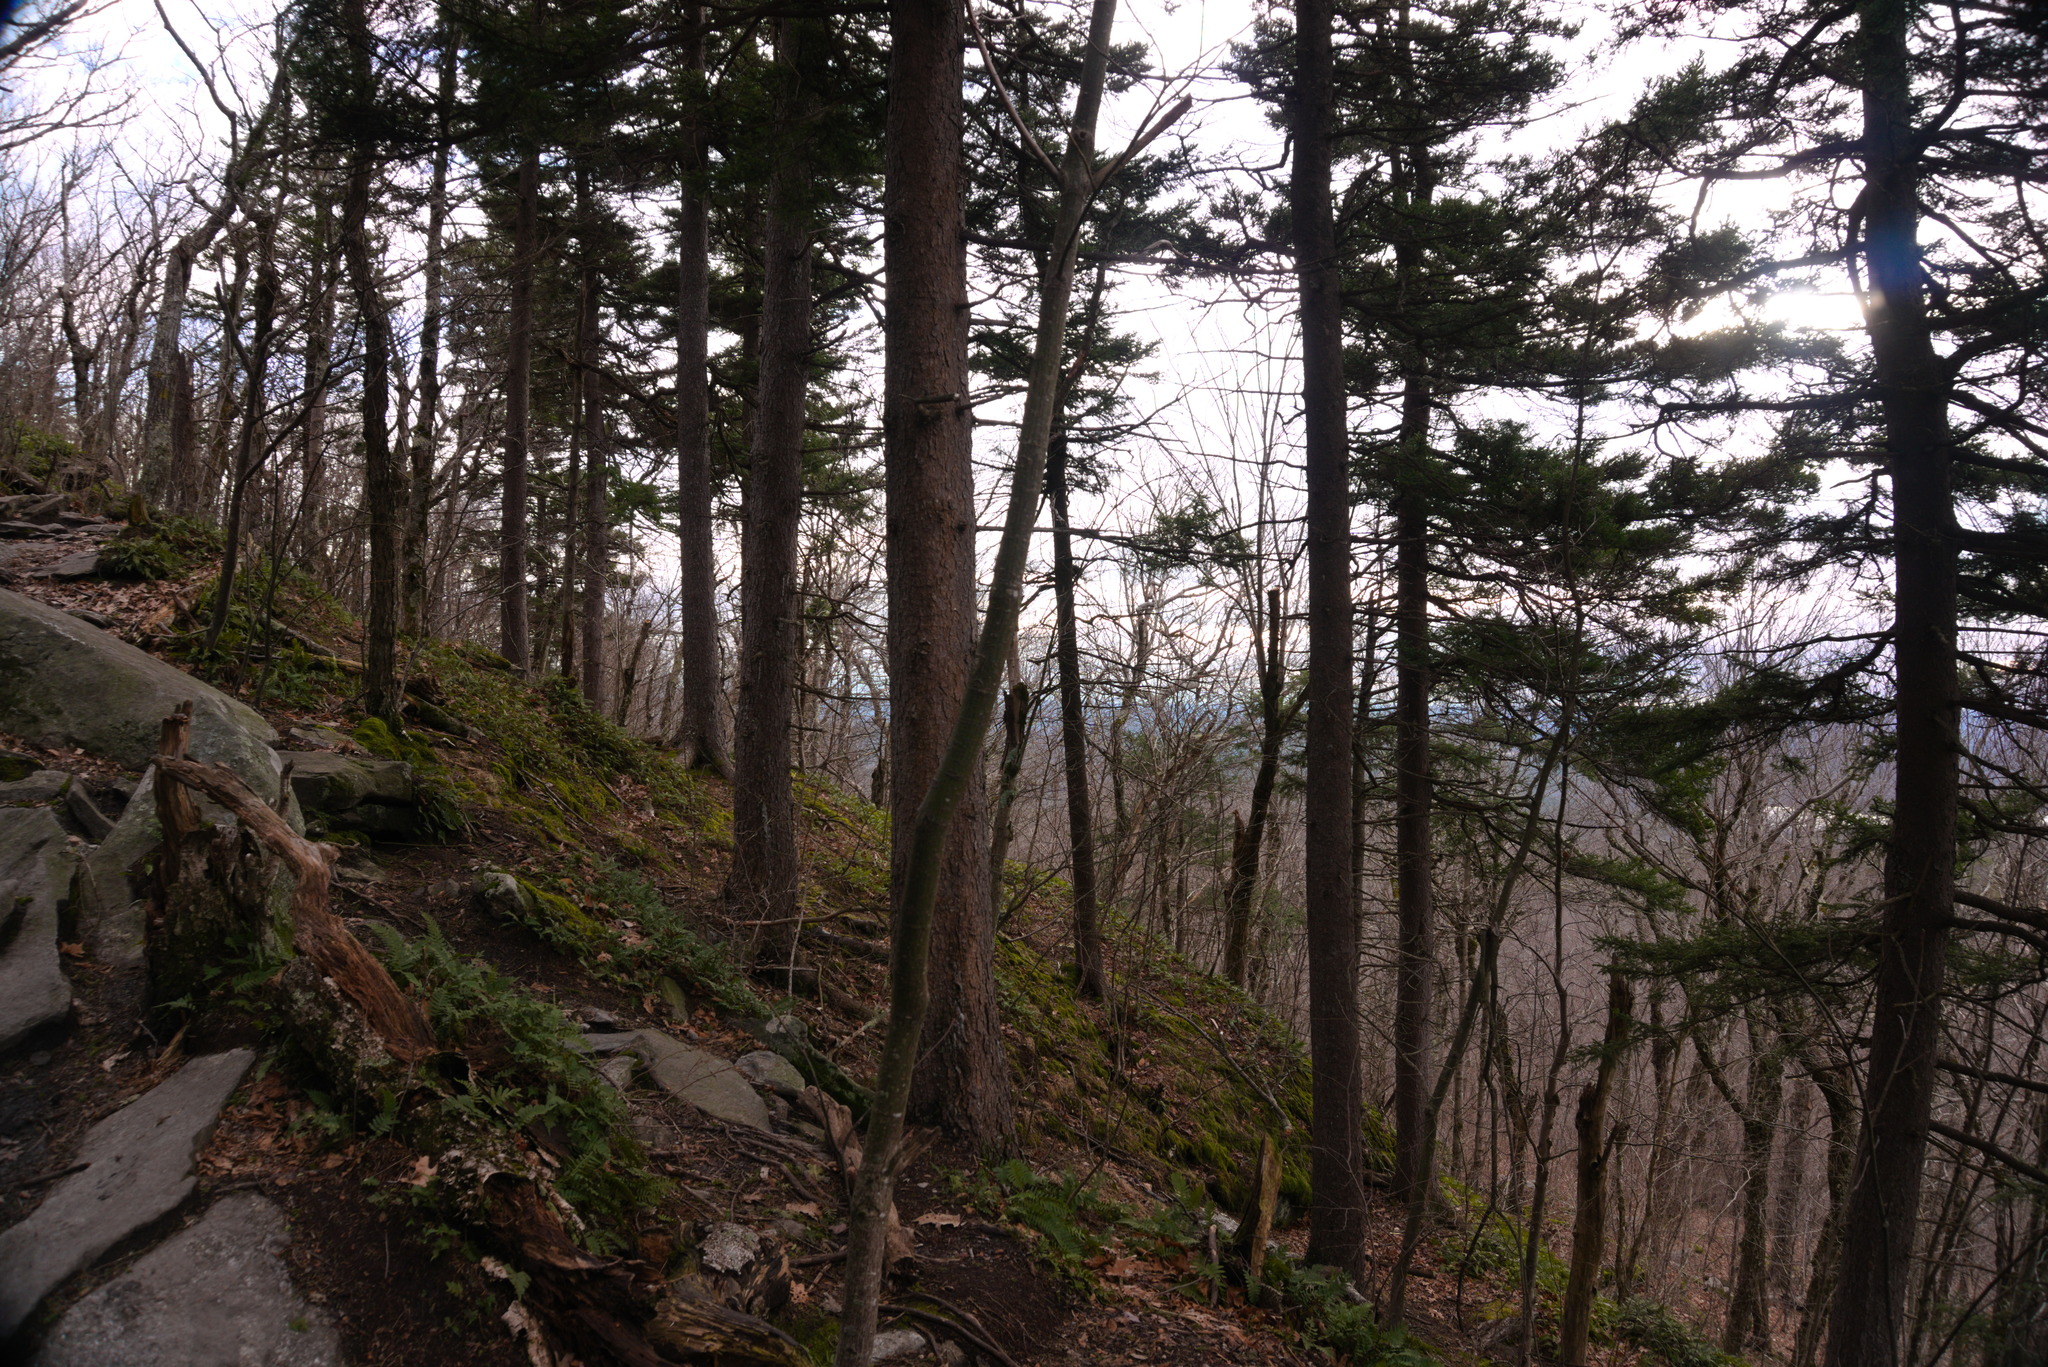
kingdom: Plantae
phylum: Tracheophyta
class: Pinopsida
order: Pinales
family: Pinaceae
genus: Picea
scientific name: Picea rubens
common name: Red spruce
